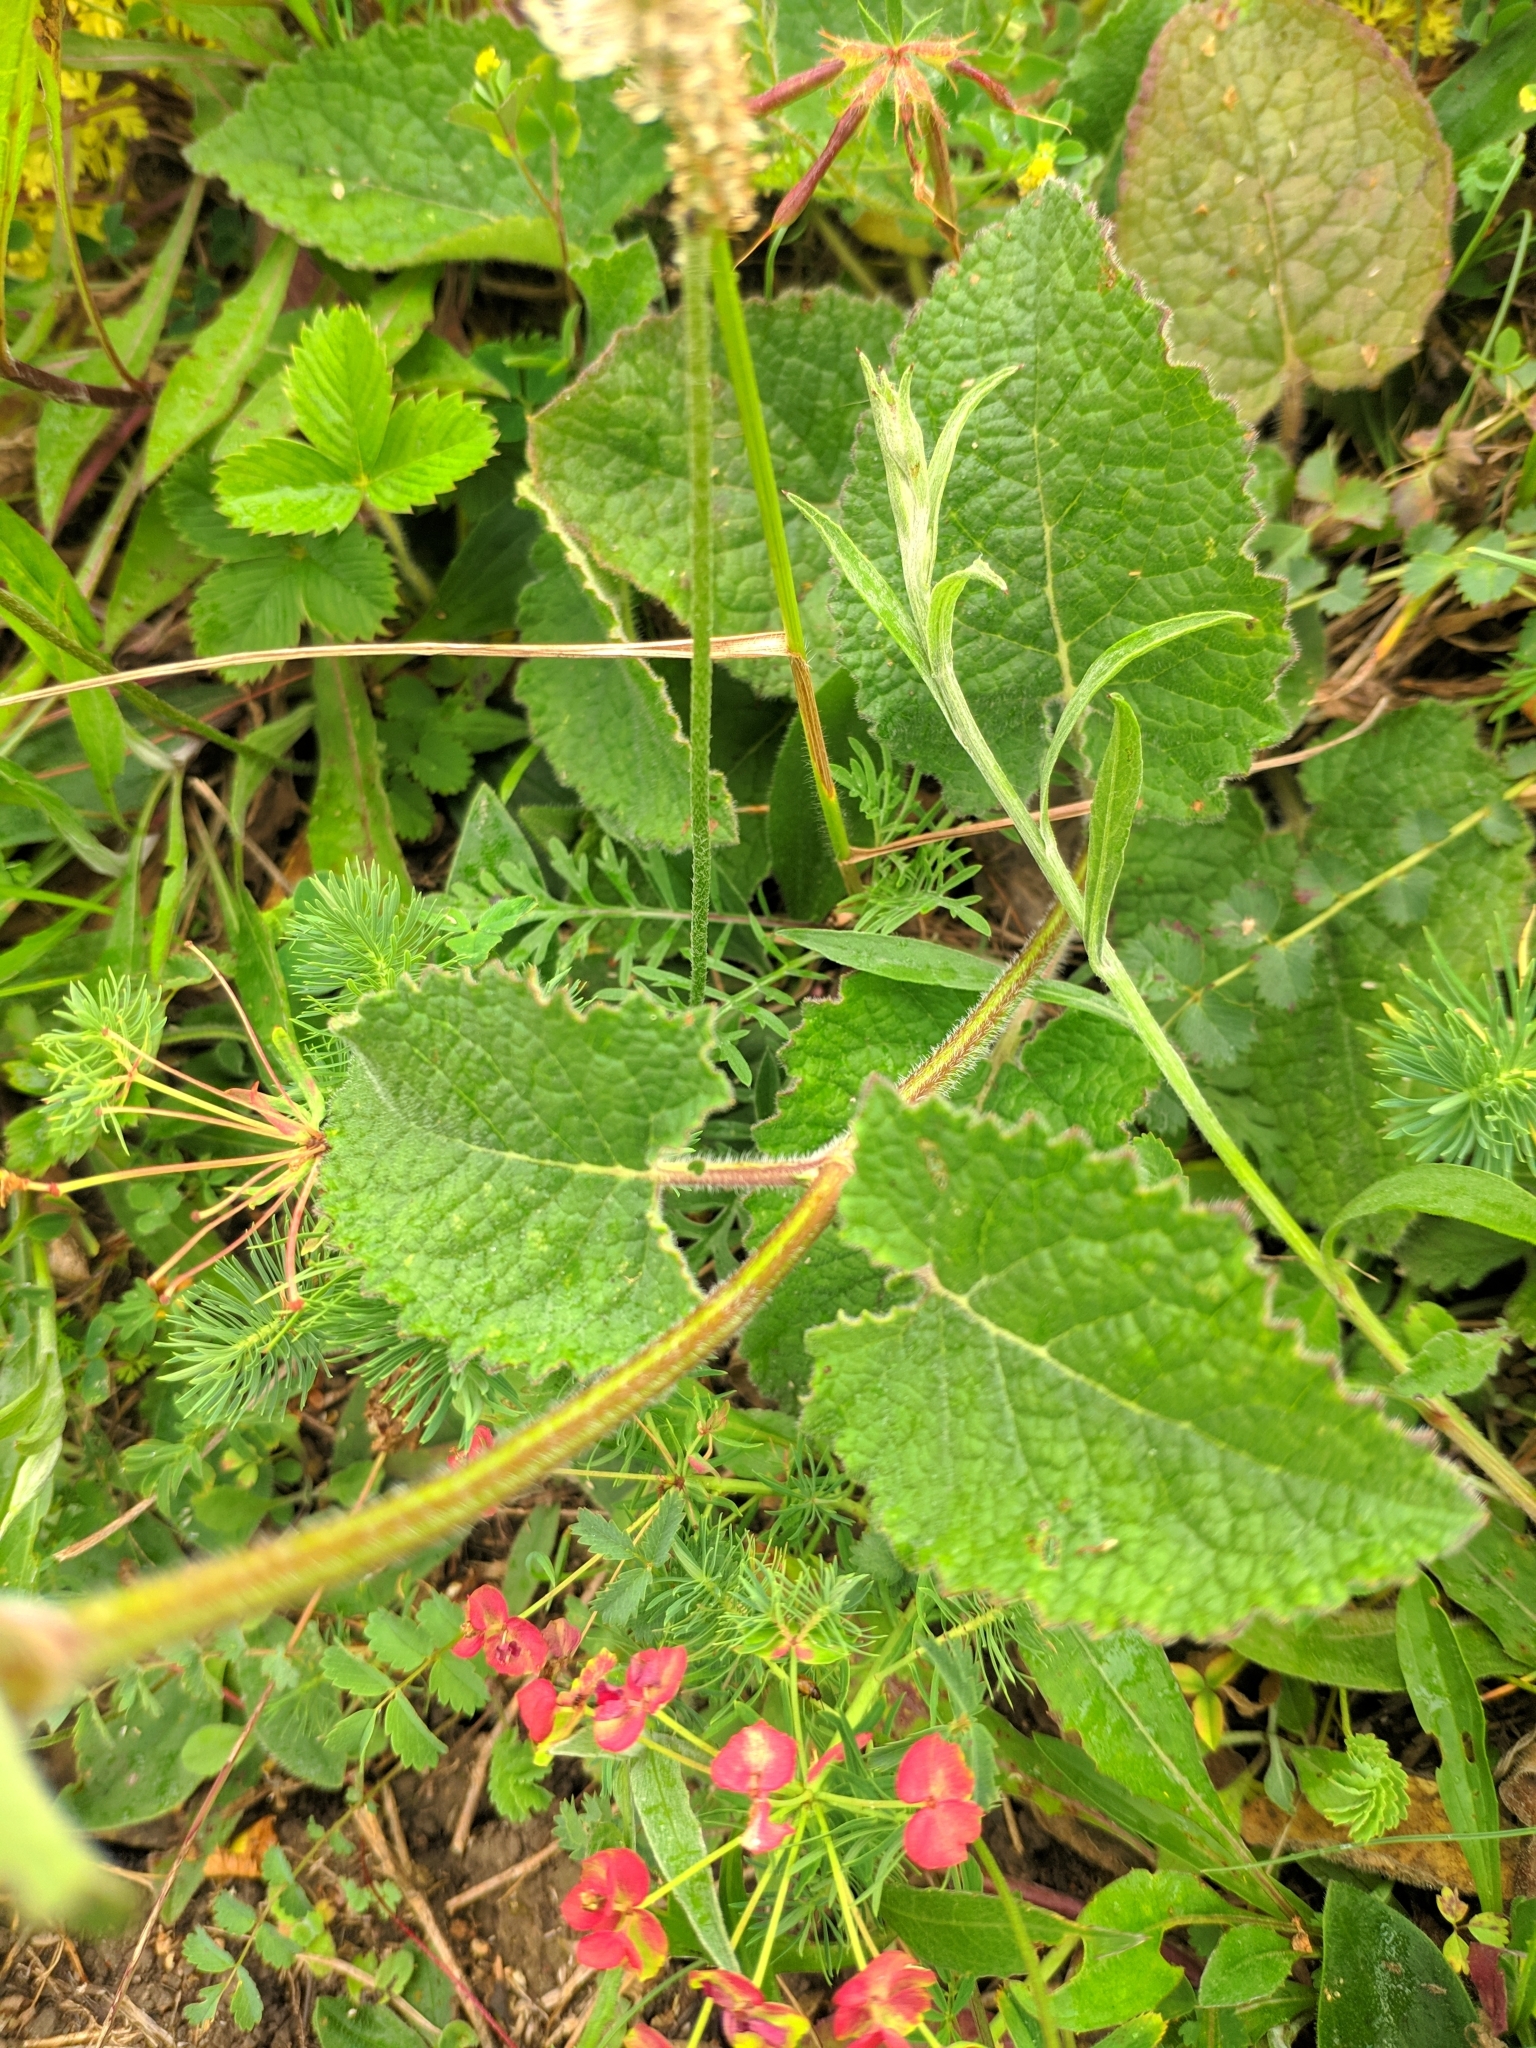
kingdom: Plantae
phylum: Tracheophyta
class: Magnoliopsida
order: Lamiales
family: Lamiaceae
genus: Salvia
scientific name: Salvia verticillata
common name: Whorled clary
